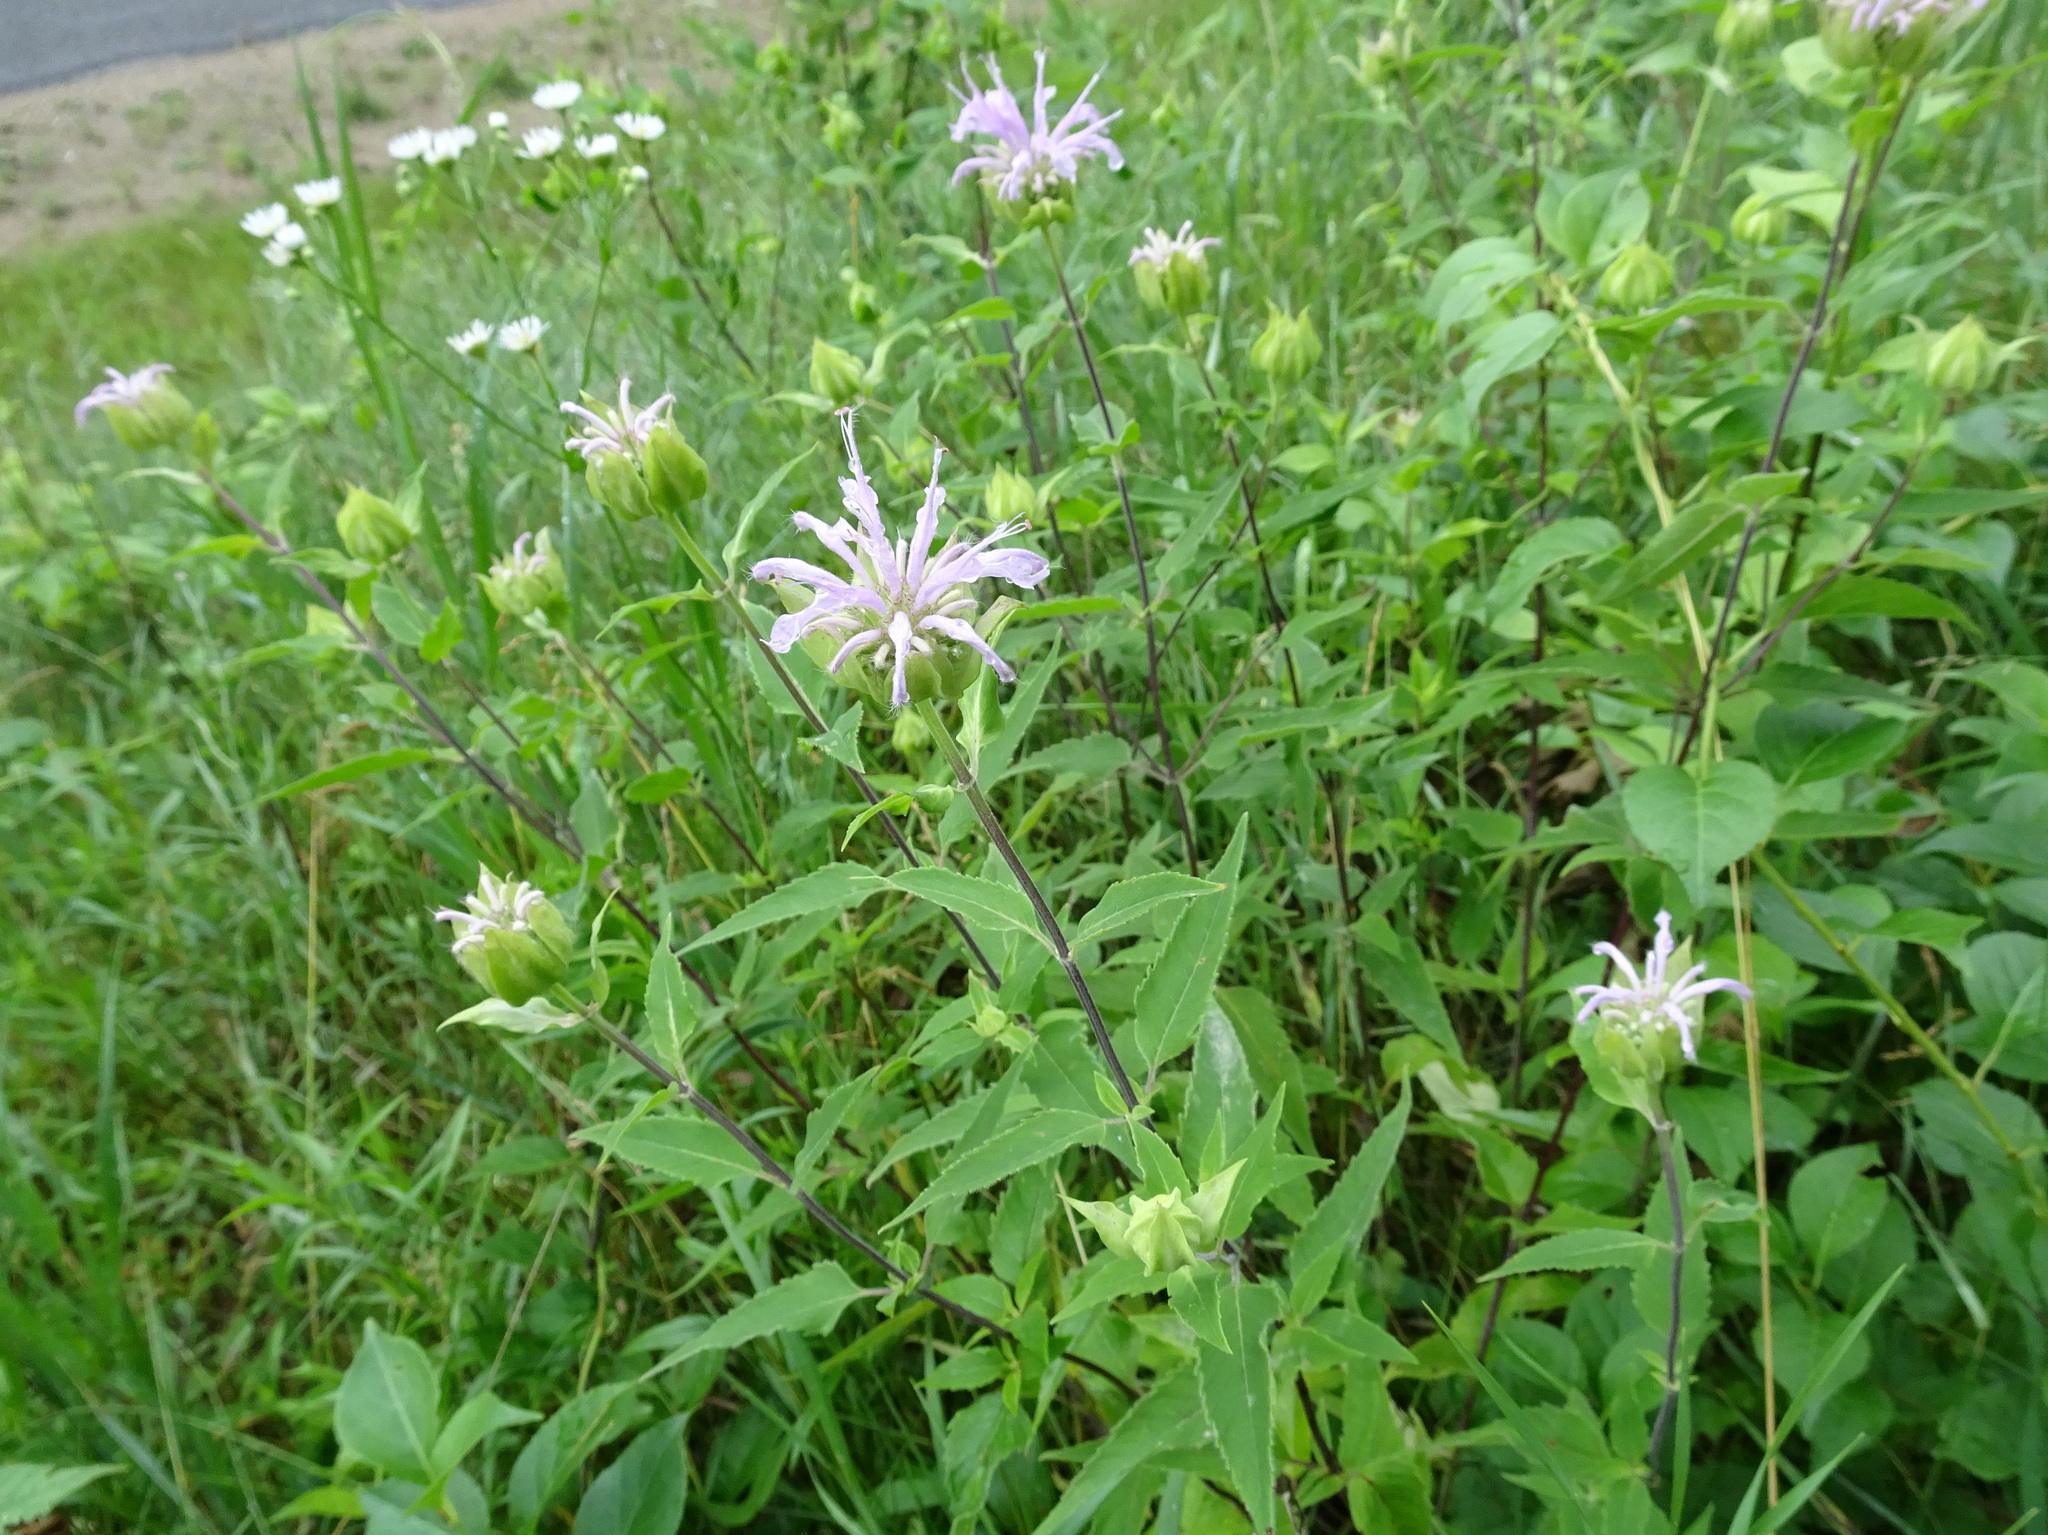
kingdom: Plantae
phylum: Tracheophyta
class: Magnoliopsida
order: Lamiales
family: Lamiaceae
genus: Monarda
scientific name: Monarda fistulosa
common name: Purple beebalm
